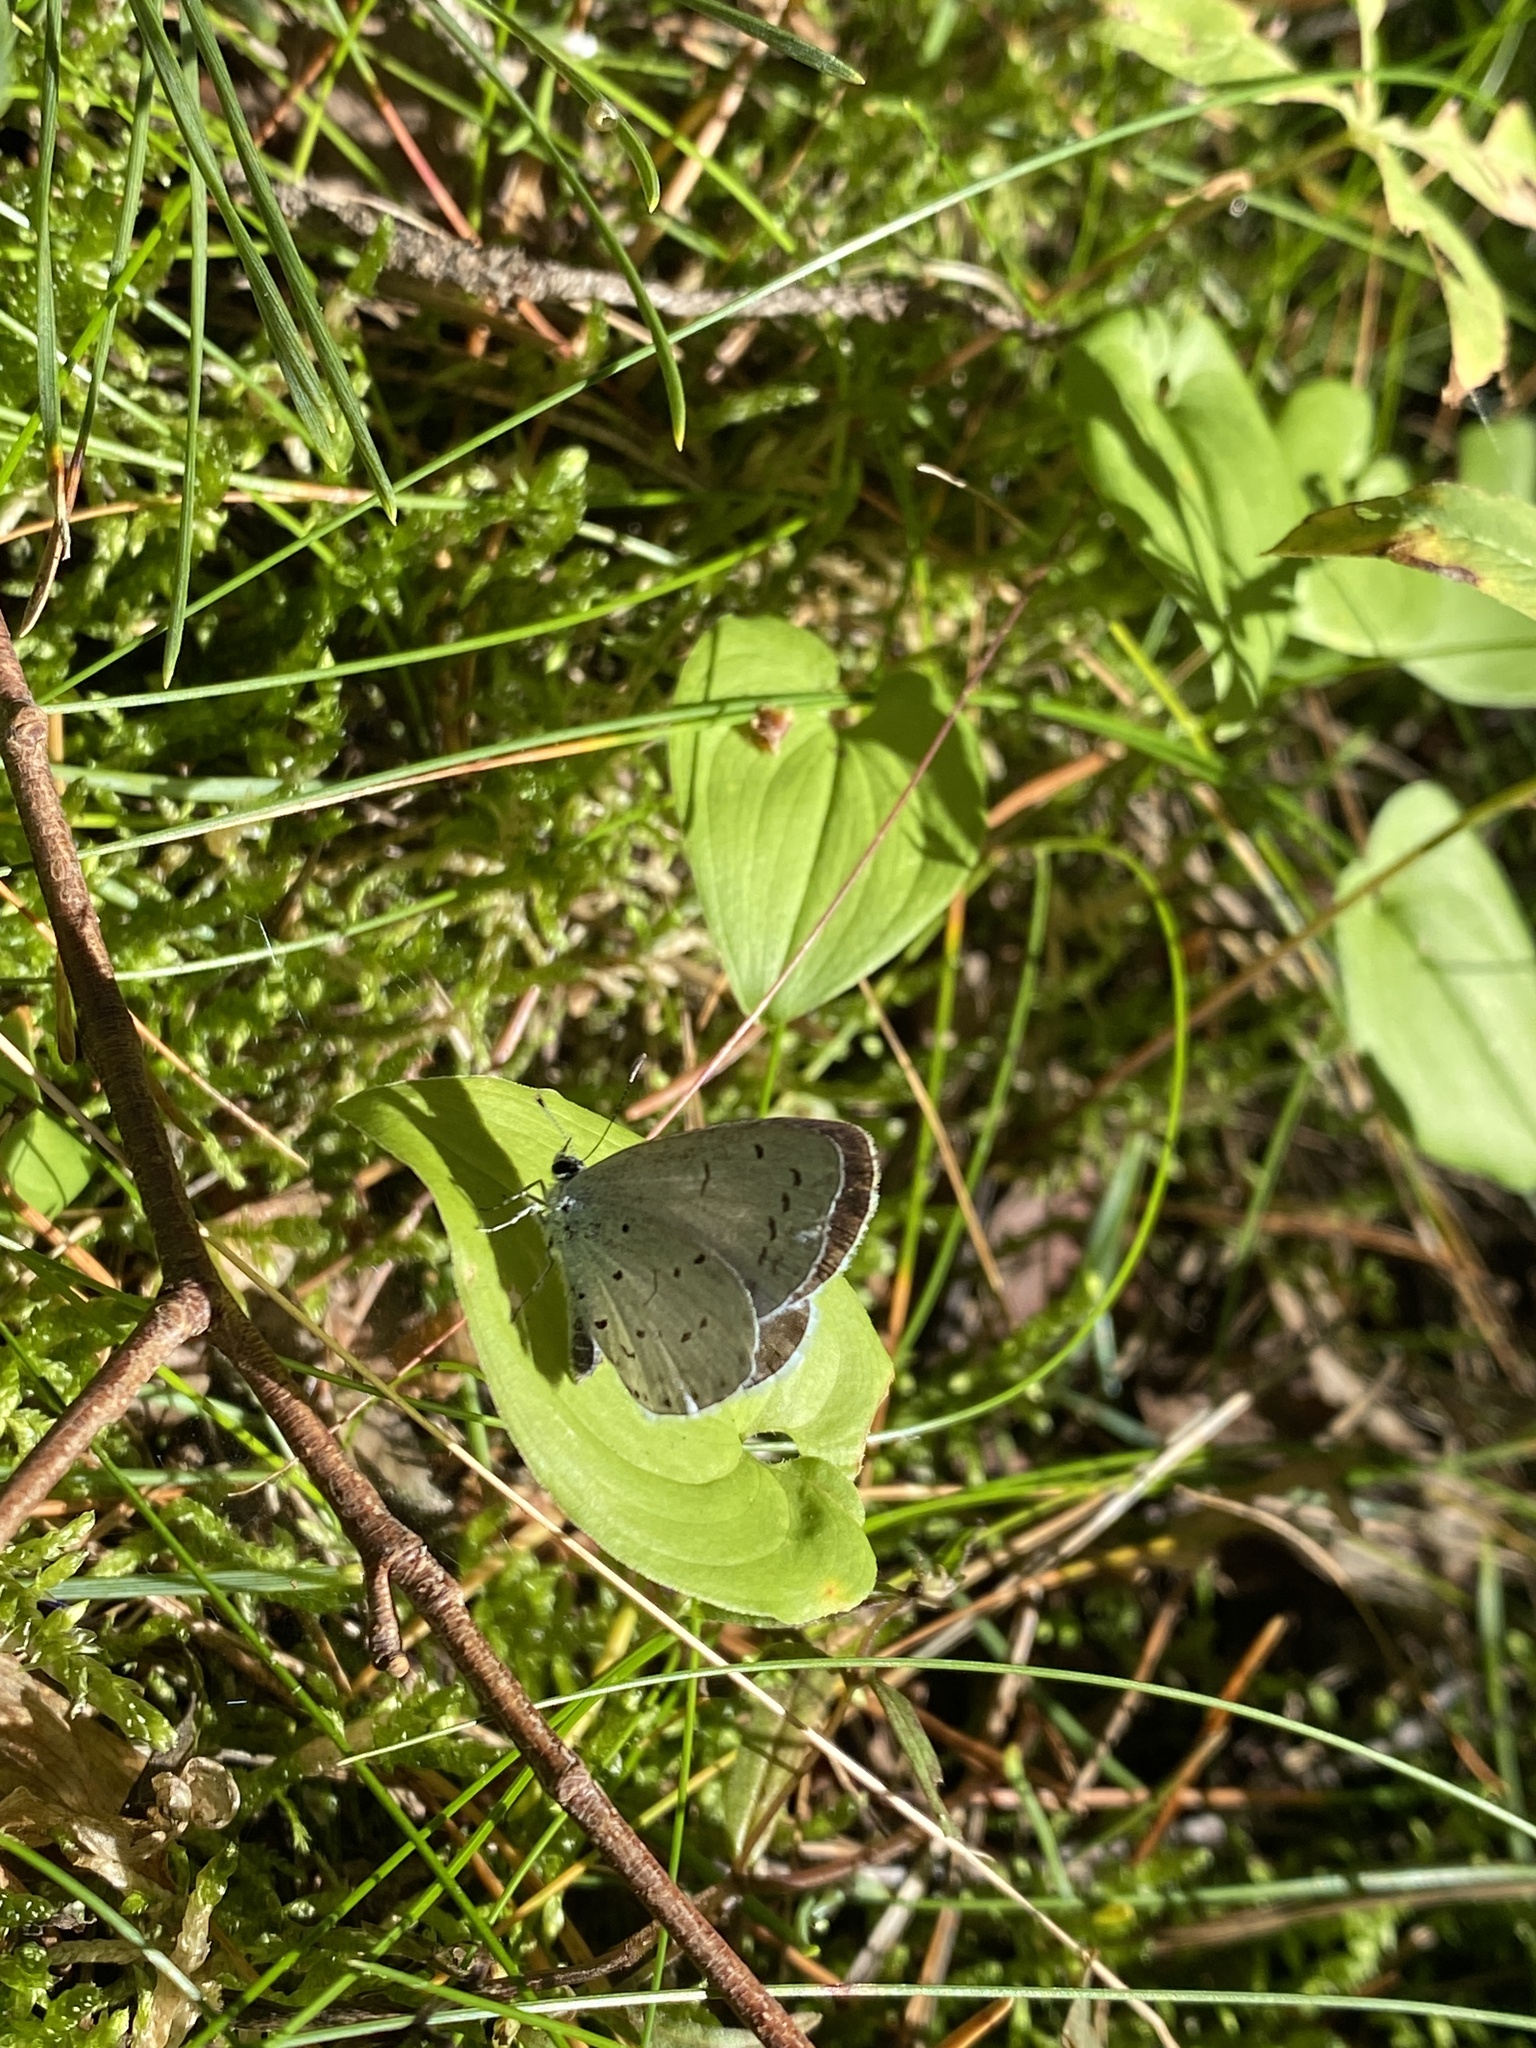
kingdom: Animalia
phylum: Arthropoda
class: Insecta
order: Lepidoptera
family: Lycaenidae
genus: Celastrina
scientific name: Celastrina argiolus
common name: Holly blue
